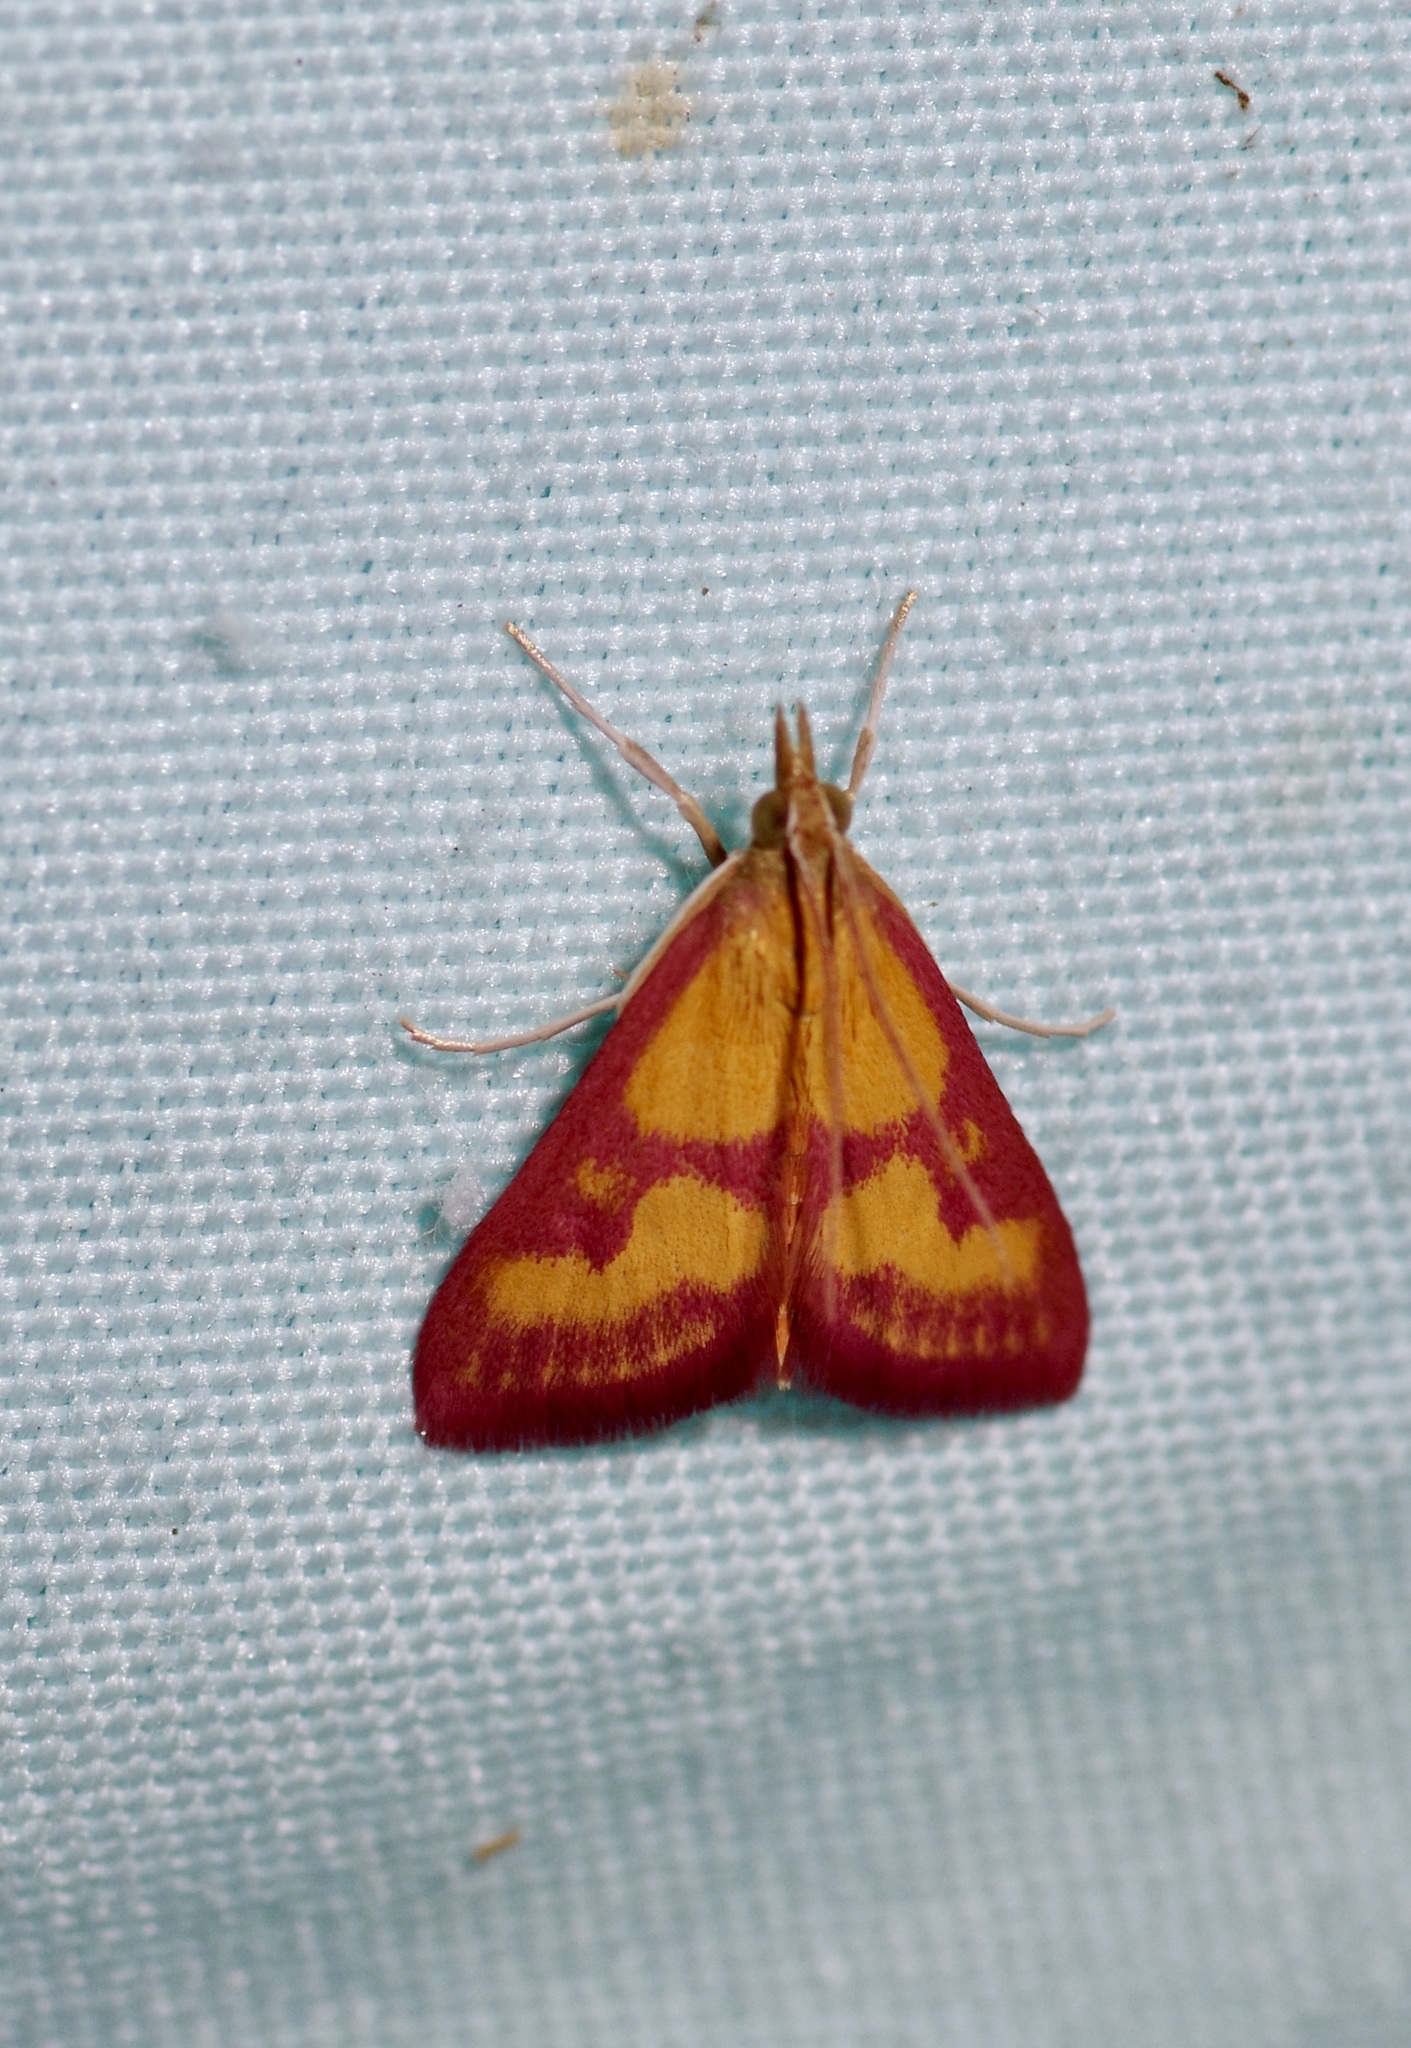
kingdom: Animalia
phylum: Arthropoda
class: Insecta
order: Lepidoptera
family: Crambidae
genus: Pyrausta
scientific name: Pyrausta laticlavia
